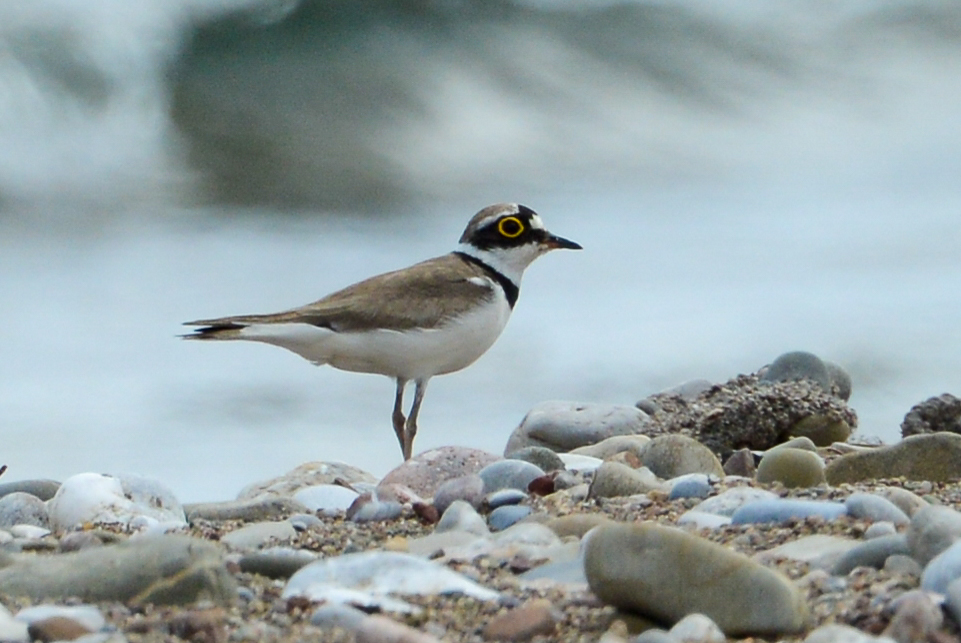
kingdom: Animalia
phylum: Chordata
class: Aves
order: Charadriiformes
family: Charadriidae
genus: Charadrius
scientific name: Charadrius dubius
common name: Little ringed plover
